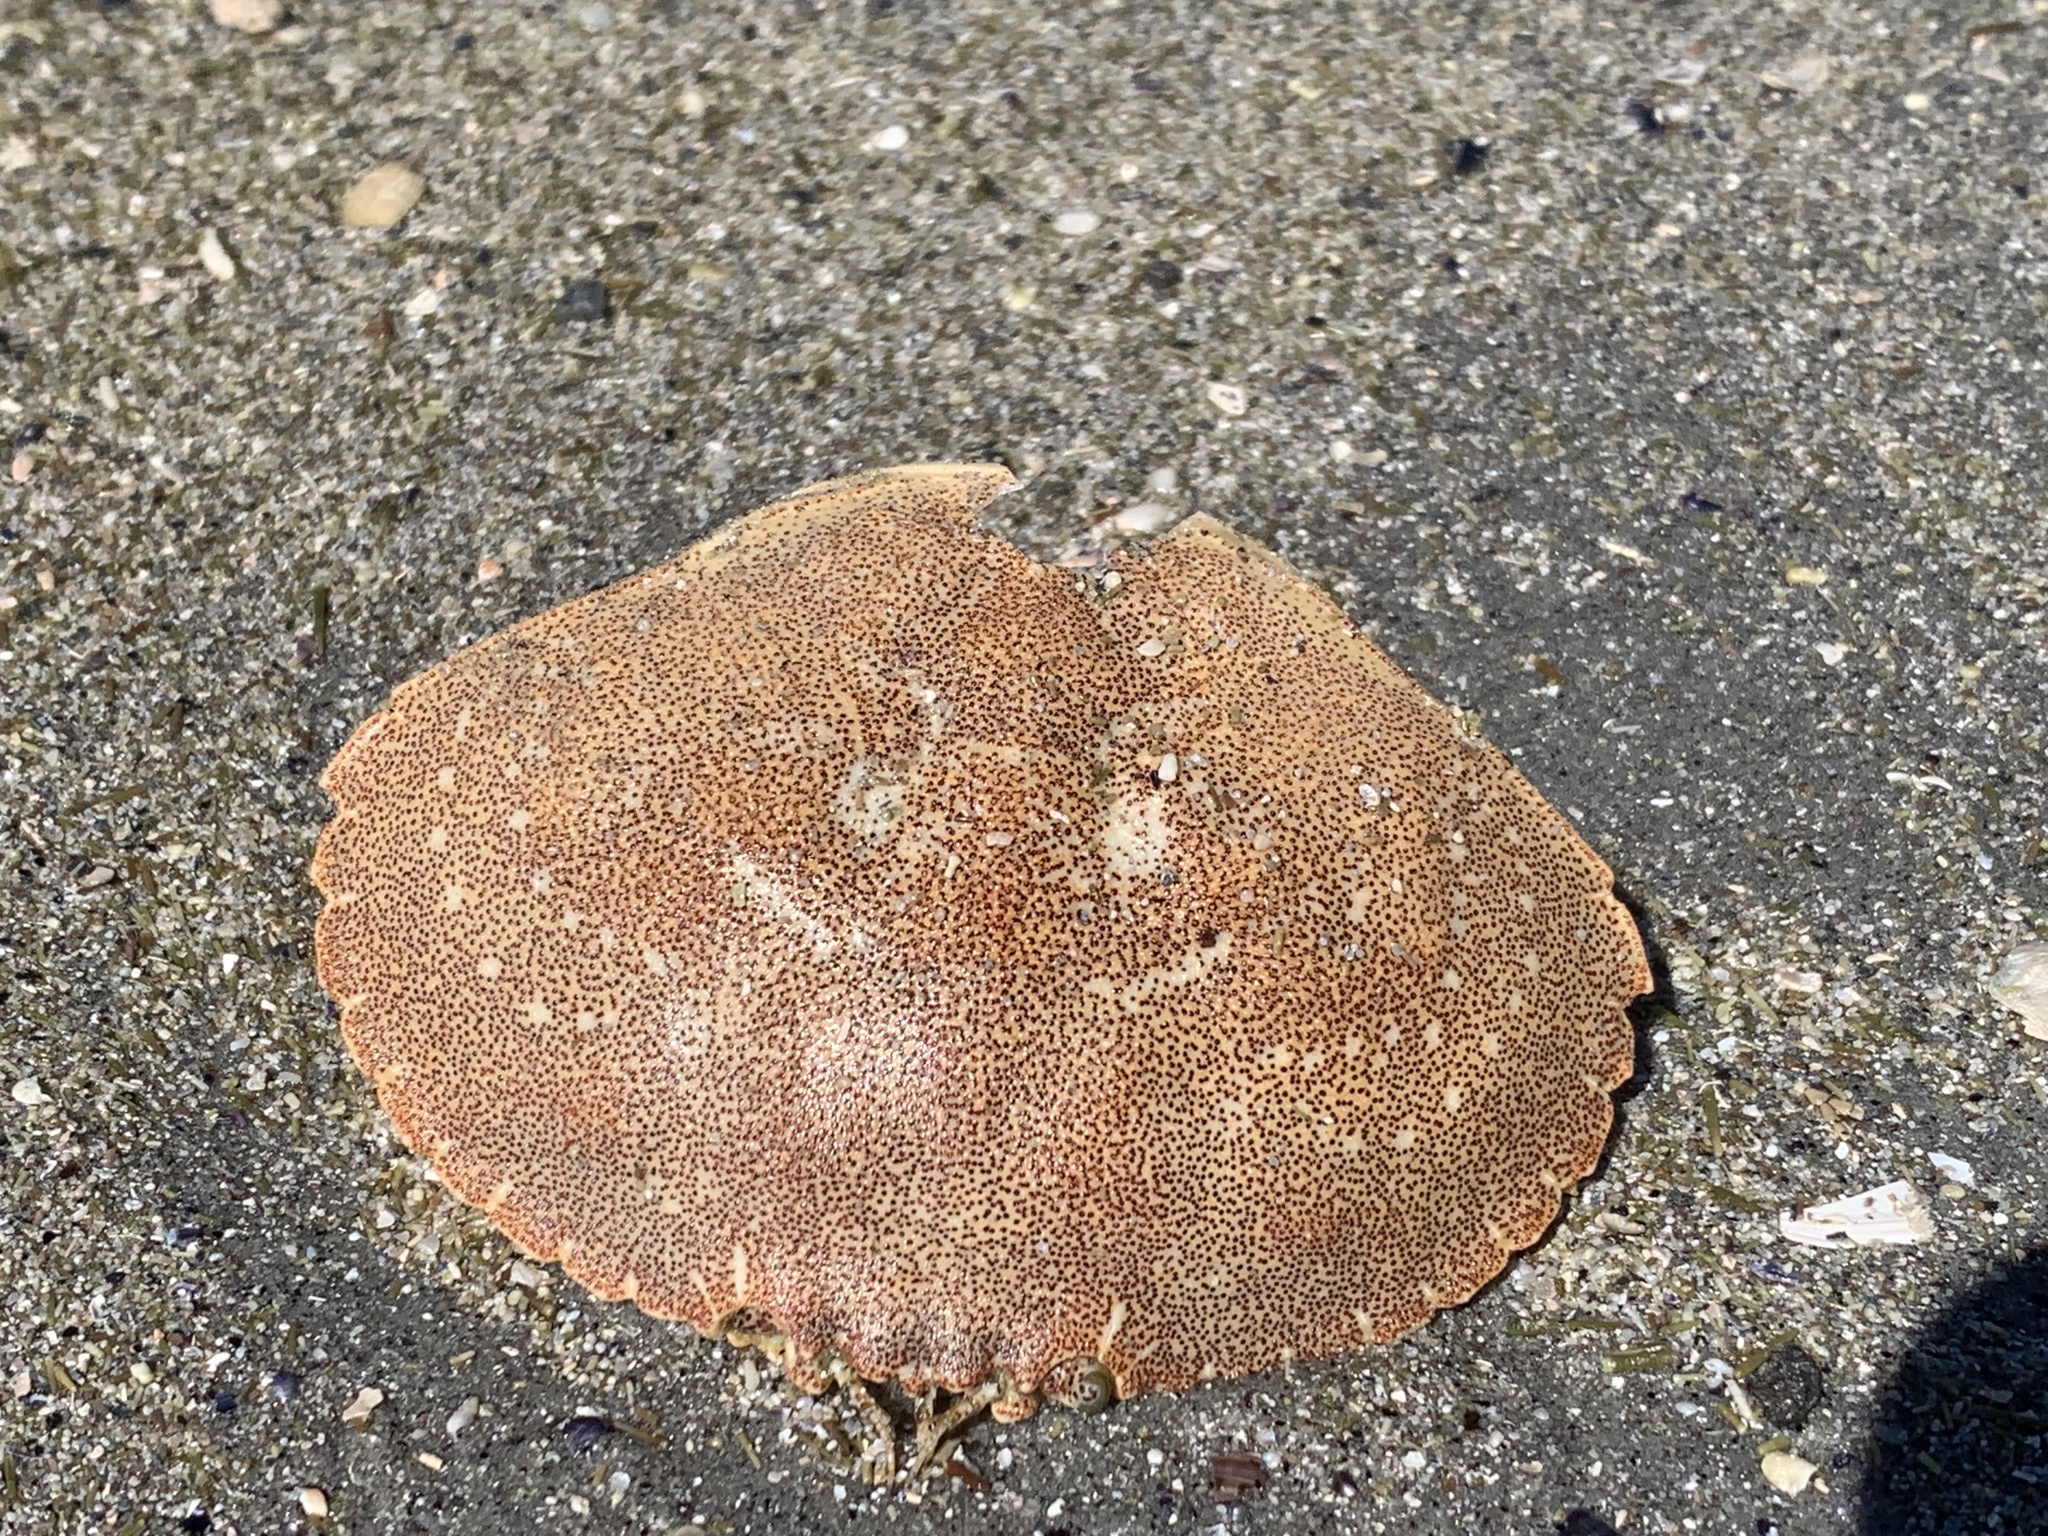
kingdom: Animalia
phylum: Arthropoda
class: Malacostraca
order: Decapoda
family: Cancridae
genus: Cancer
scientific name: Cancer irroratus
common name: Atlantic rock crab
